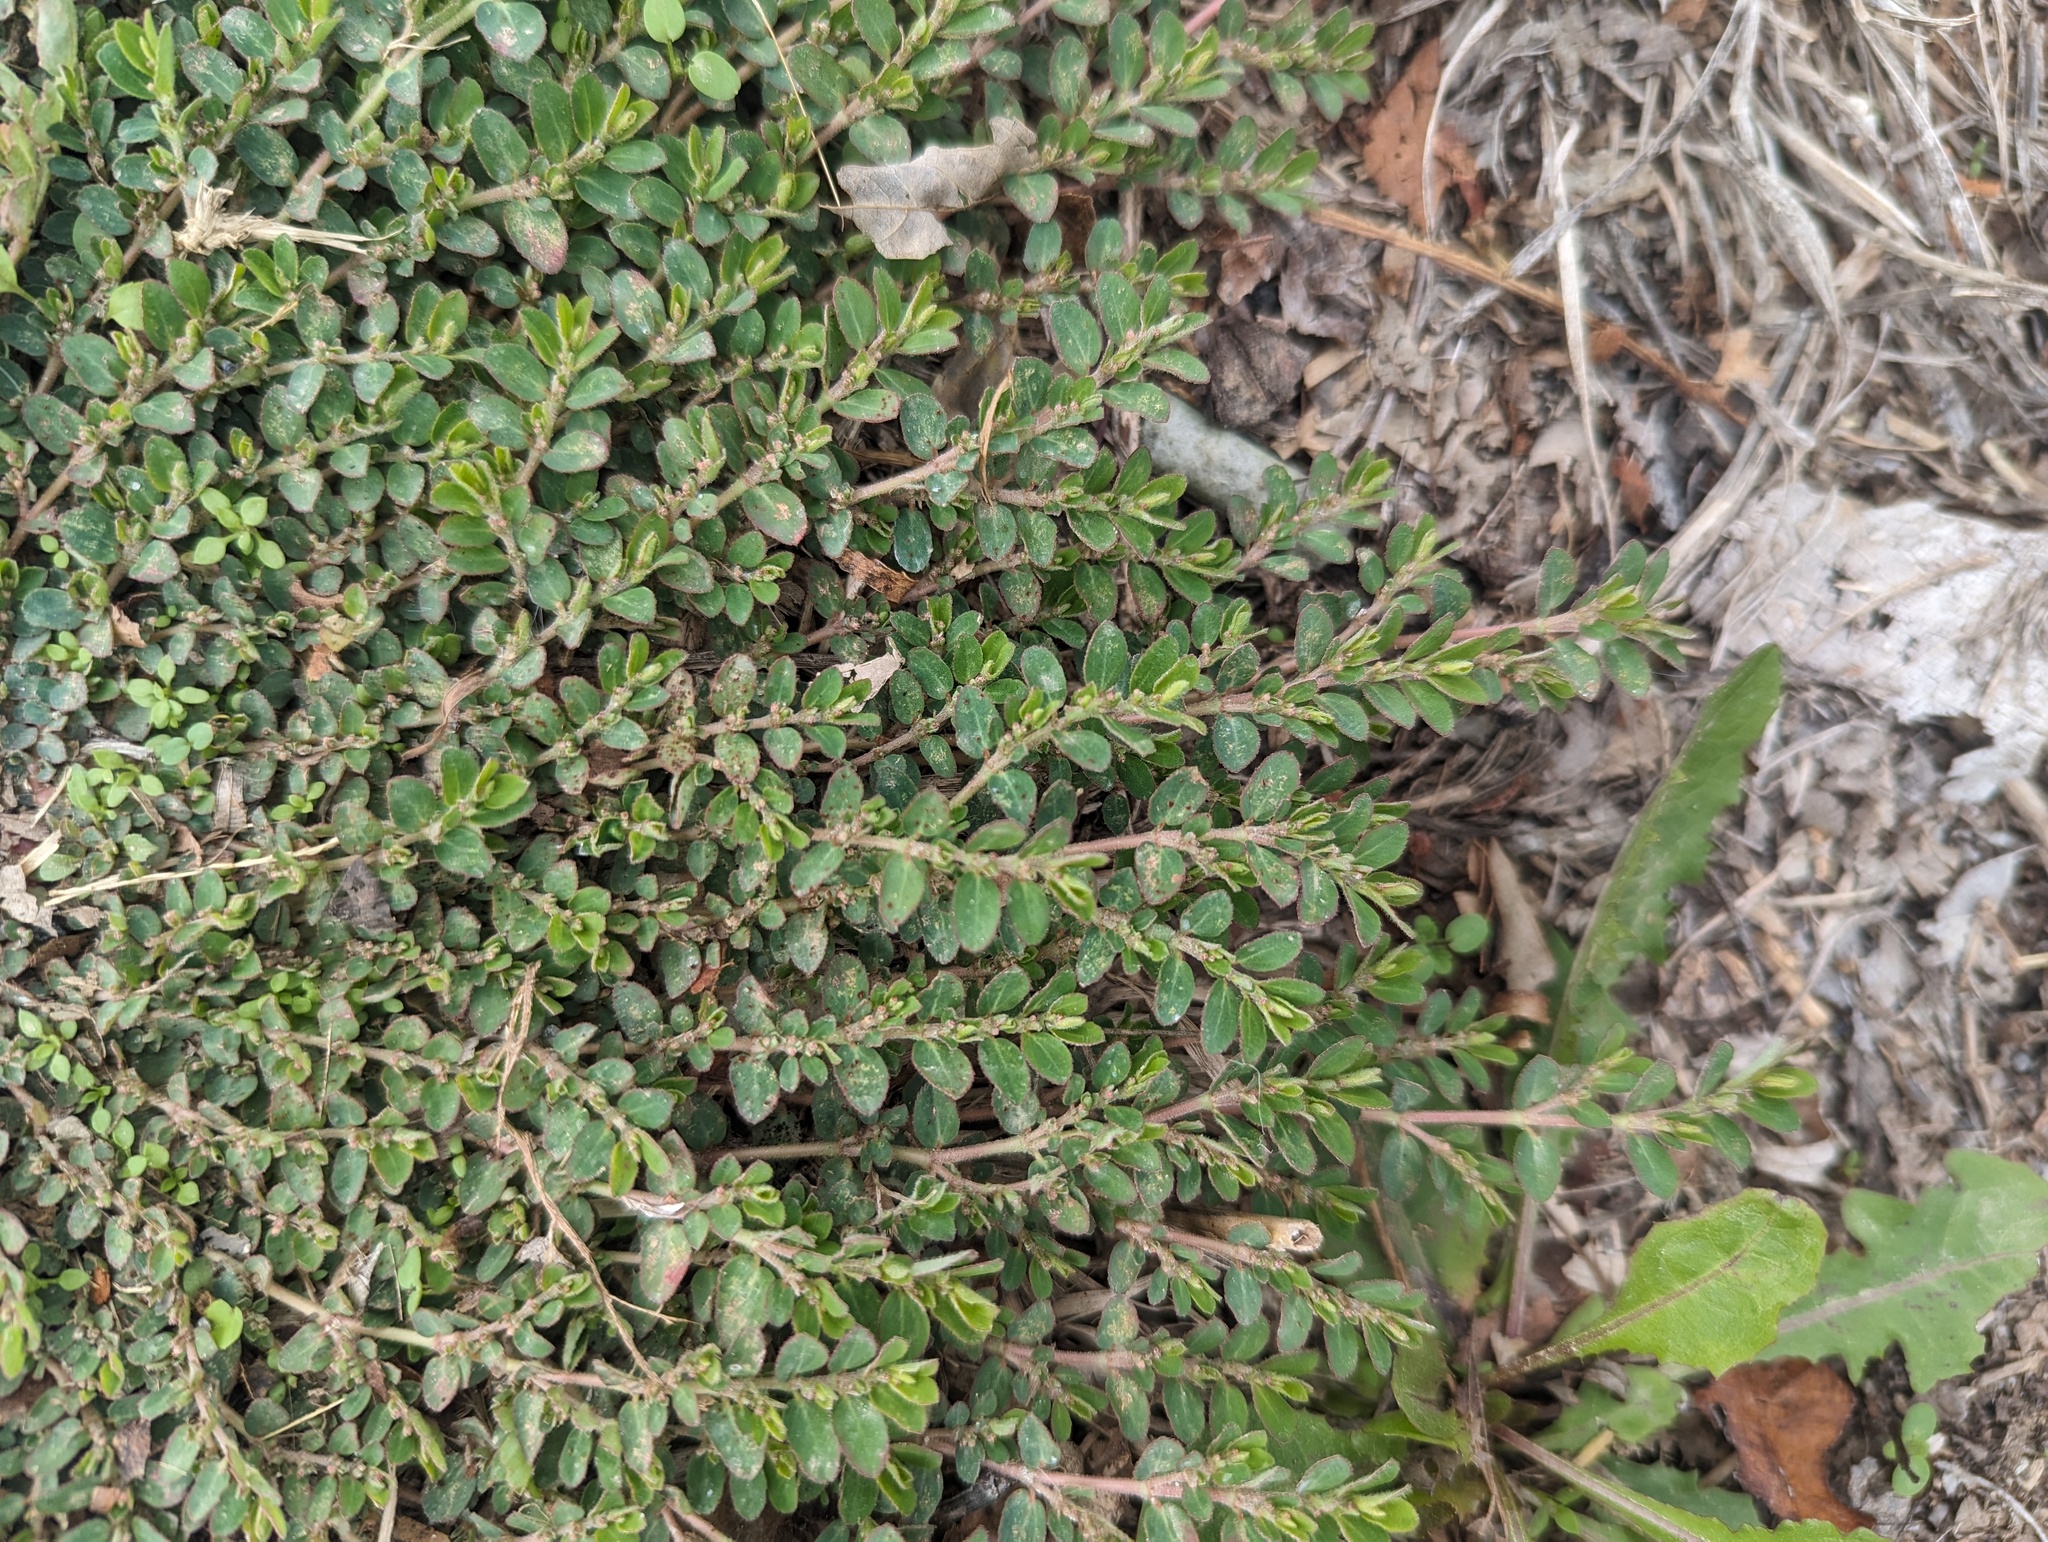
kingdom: Plantae
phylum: Tracheophyta
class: Magnoliopsida
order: Malpighiales
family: Euphorbiaceae
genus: Euphorbia
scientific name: Euphorbia prostrata
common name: Prostrate sandmat
